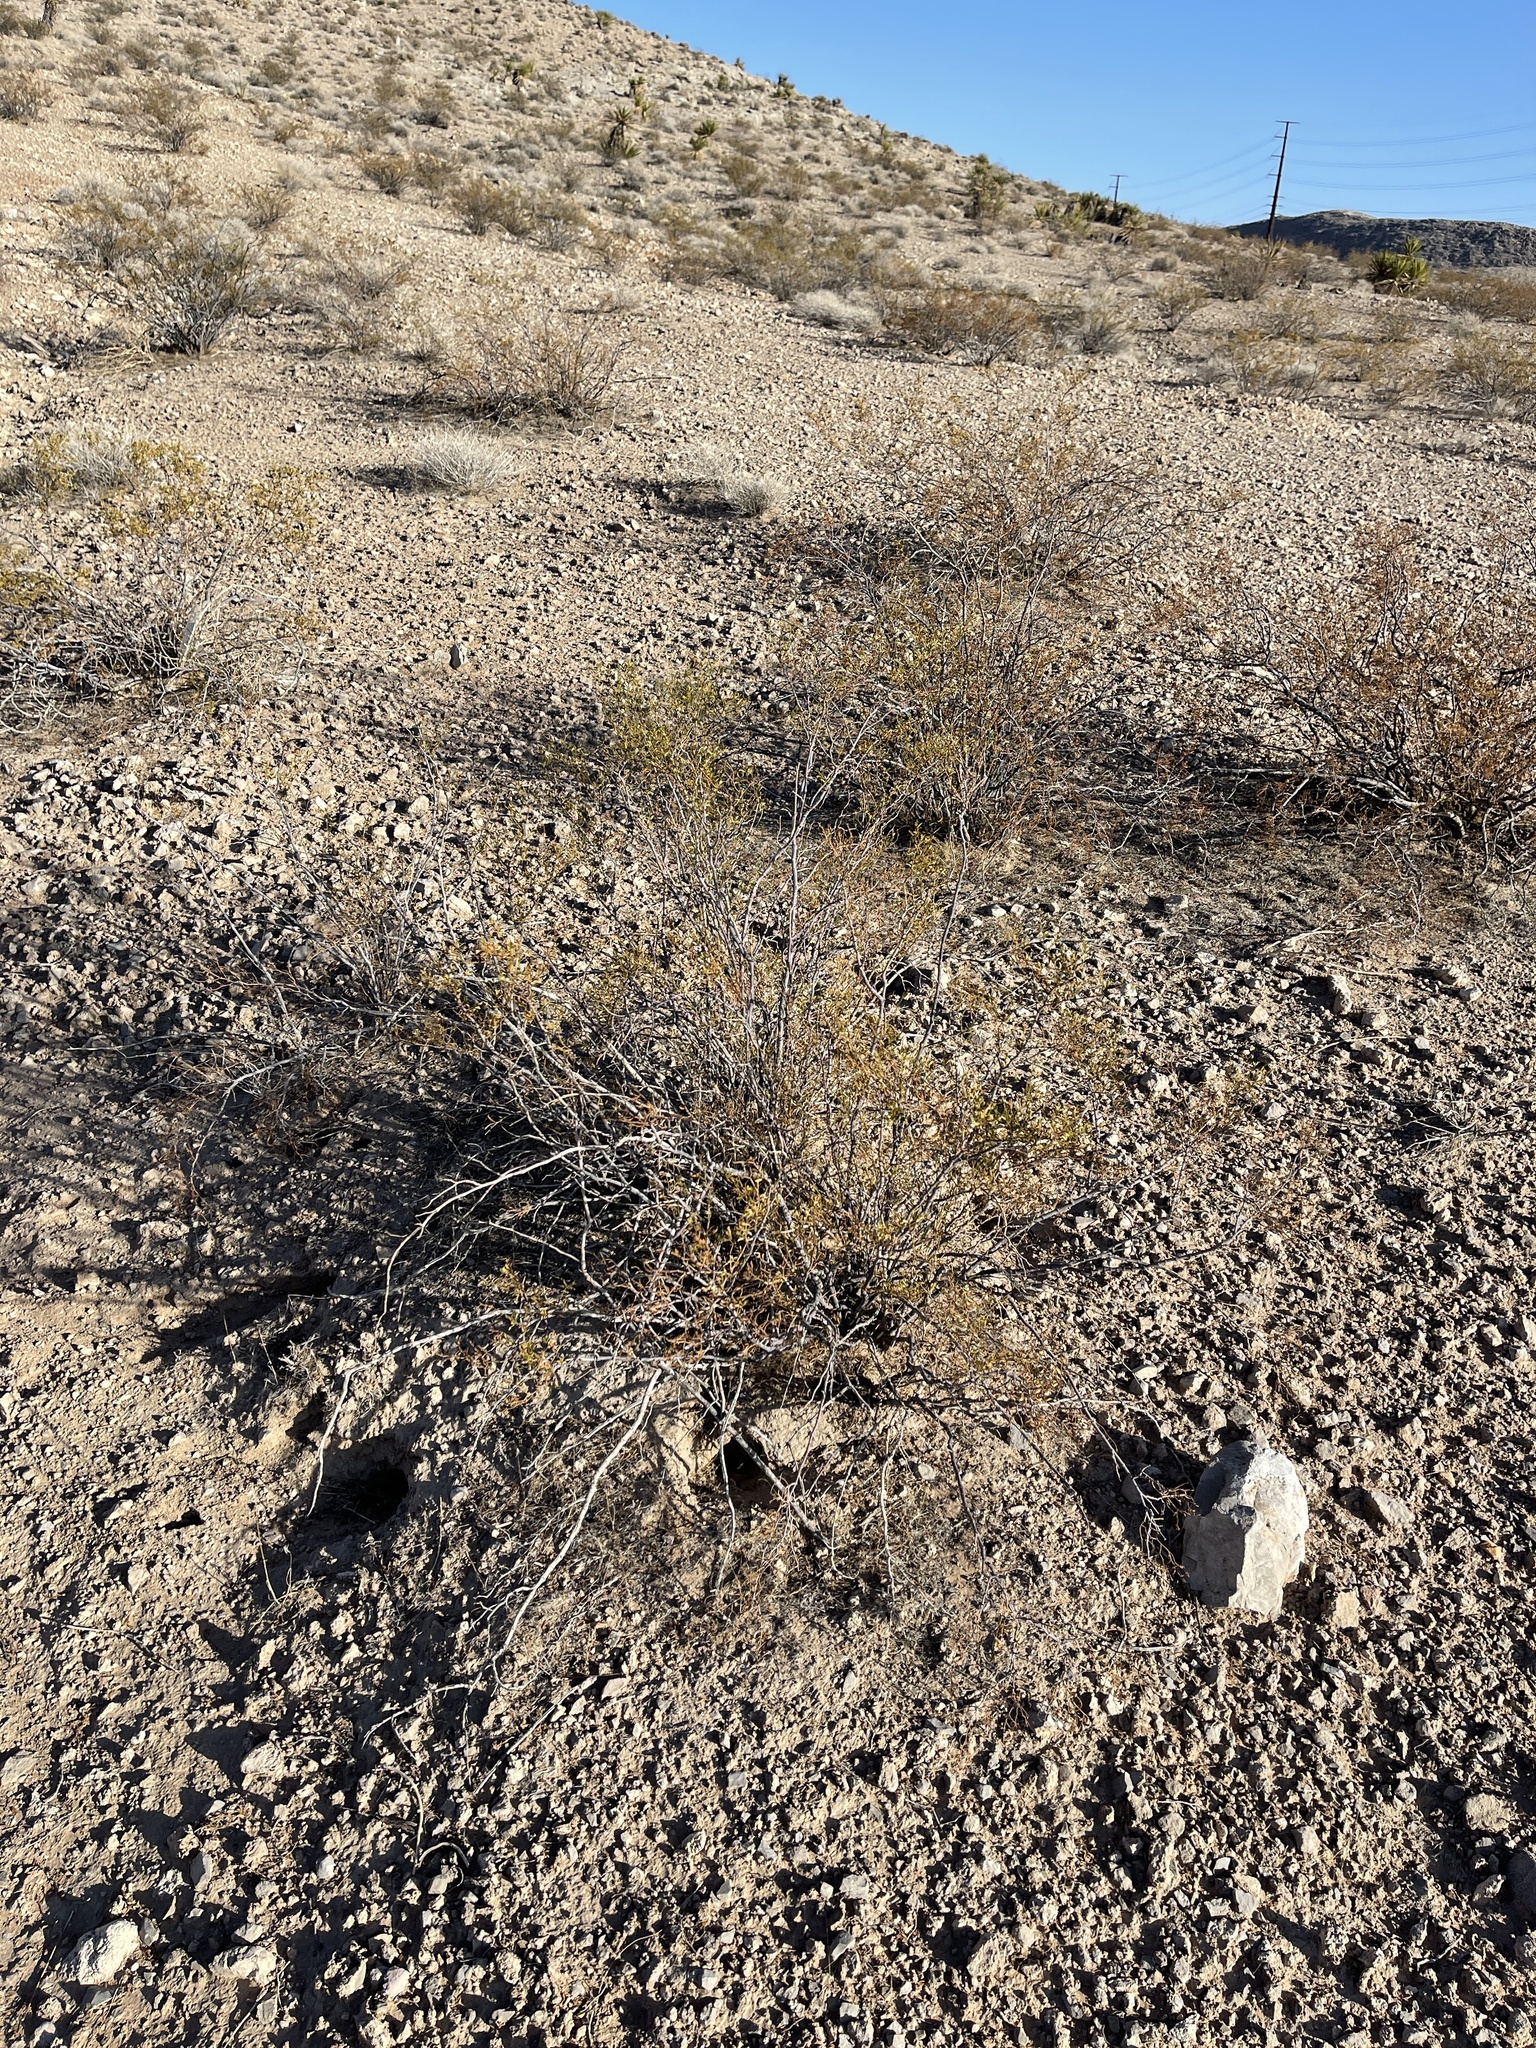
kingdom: Plantae
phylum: Tracheophyta
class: Magnoliopsida
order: Zygophyllales
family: Zygophyllaceae
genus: Larrea
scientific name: Larrea tridentata
